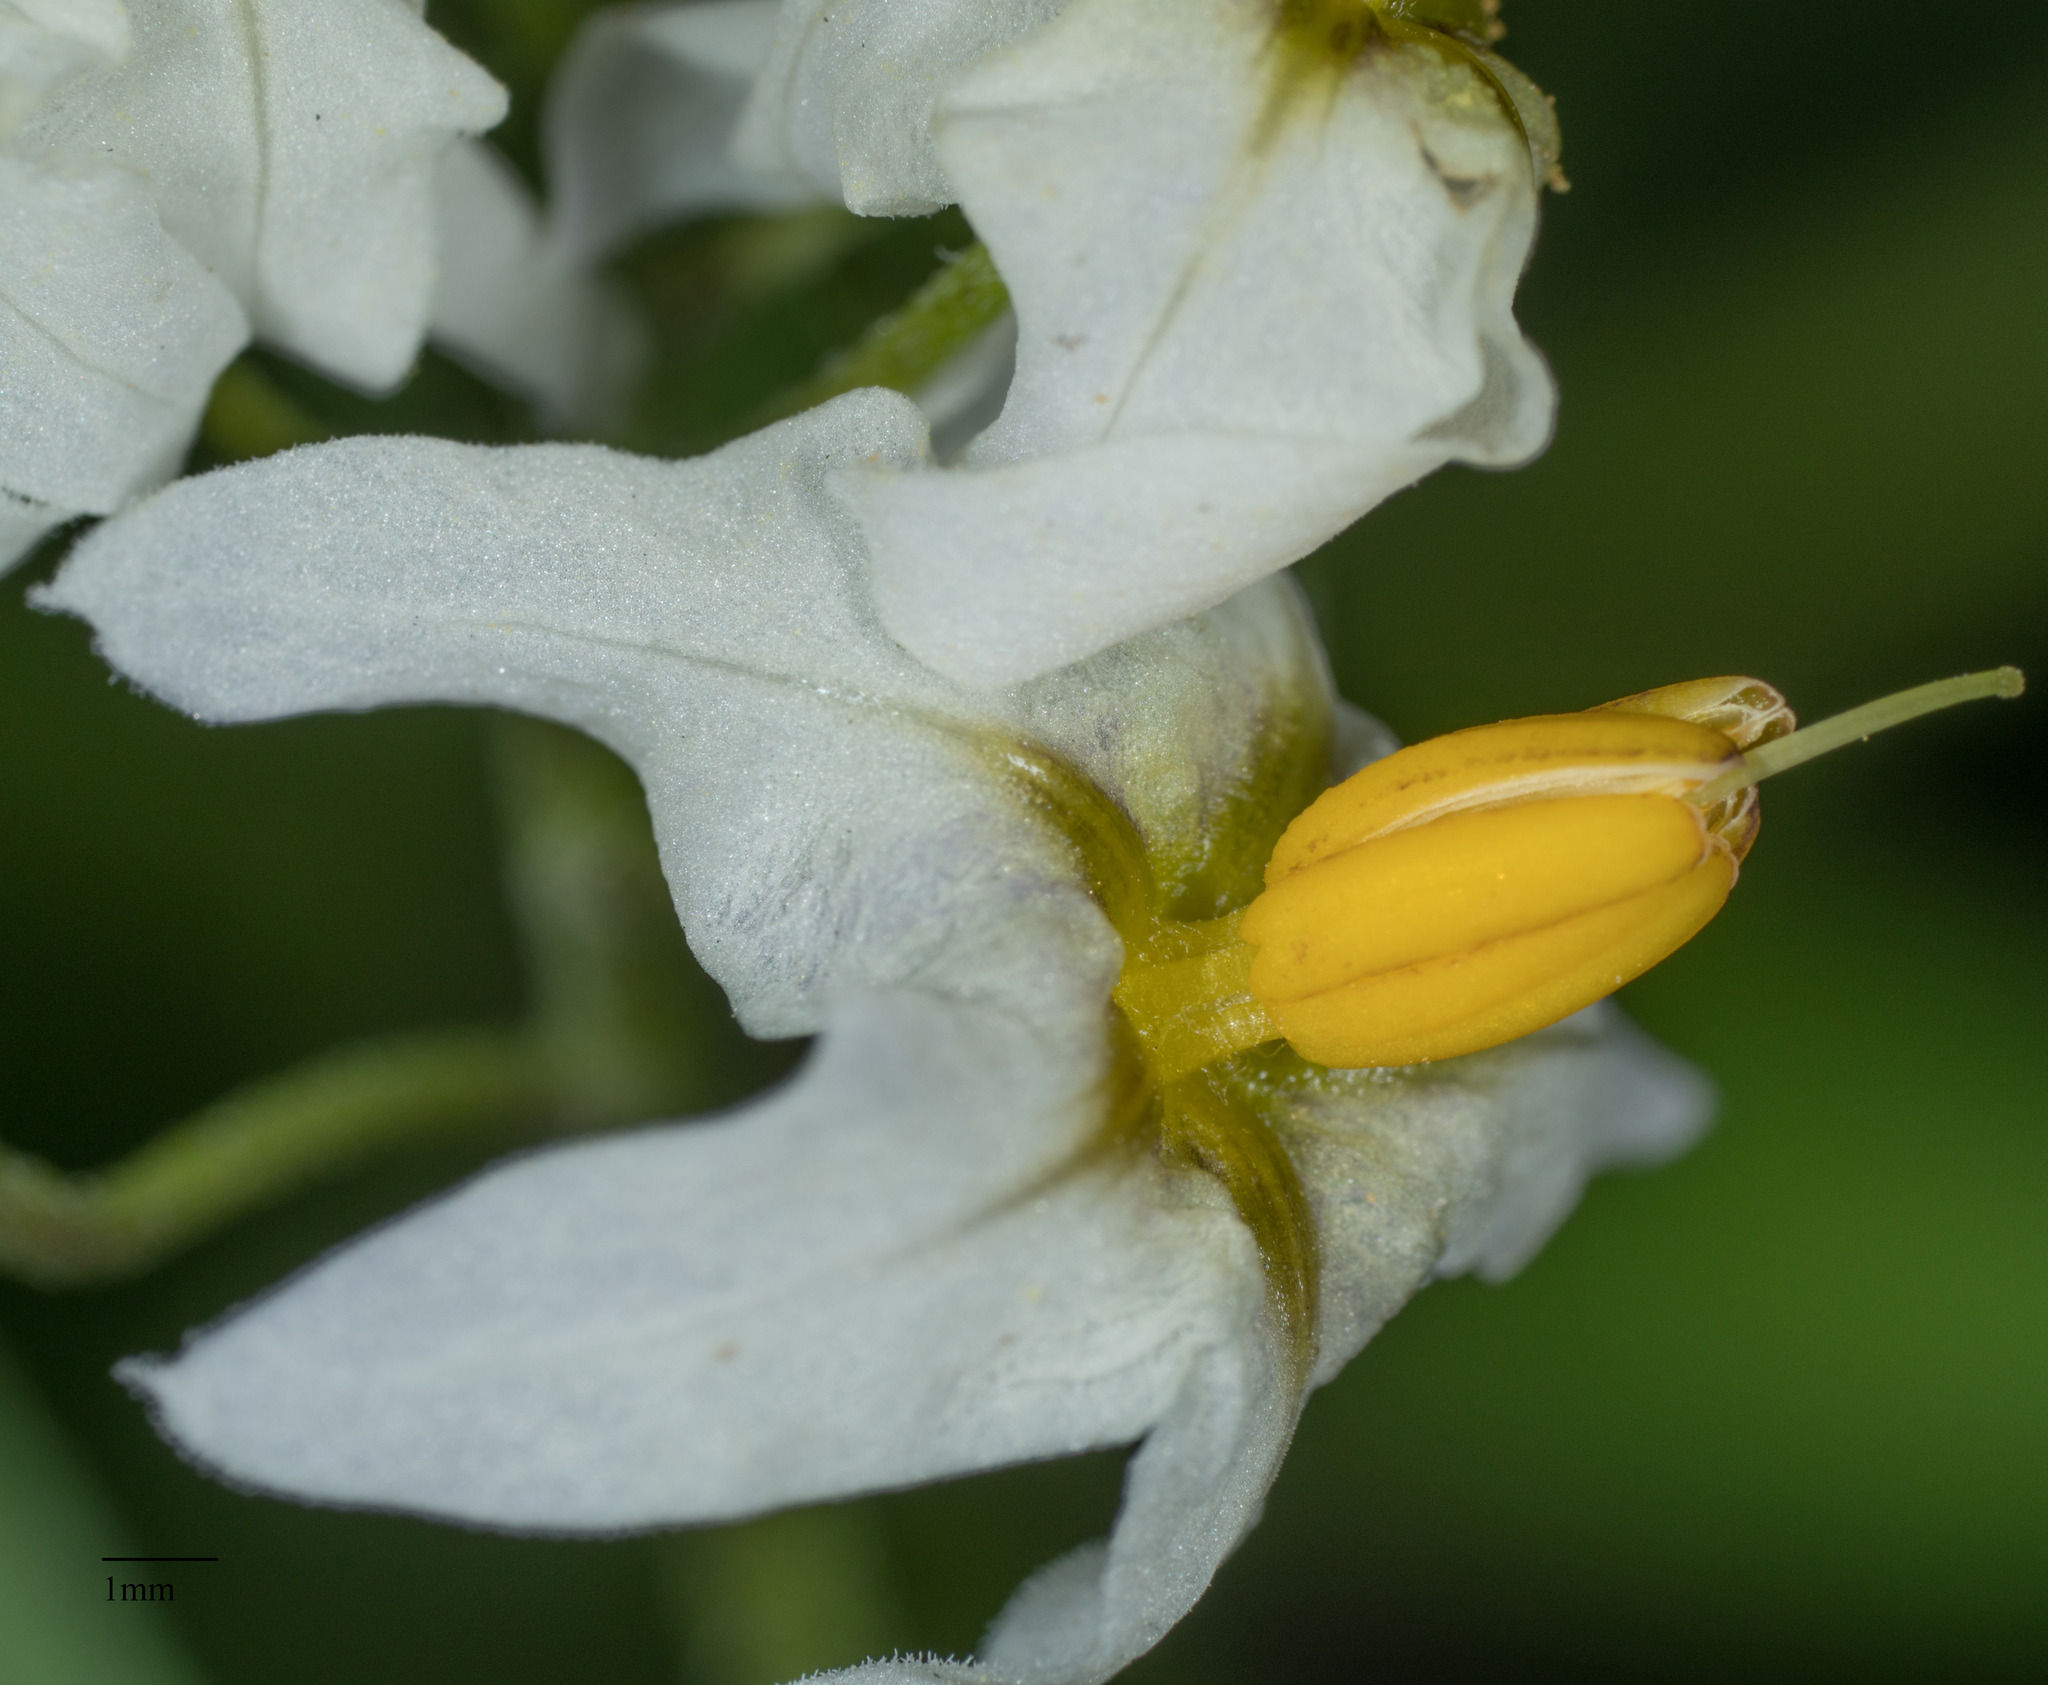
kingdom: Plantae
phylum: Tracheophyta
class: Magnoliopsida
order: Solanales
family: Solanaceae
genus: Solanum
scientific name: Solanum douglasii
